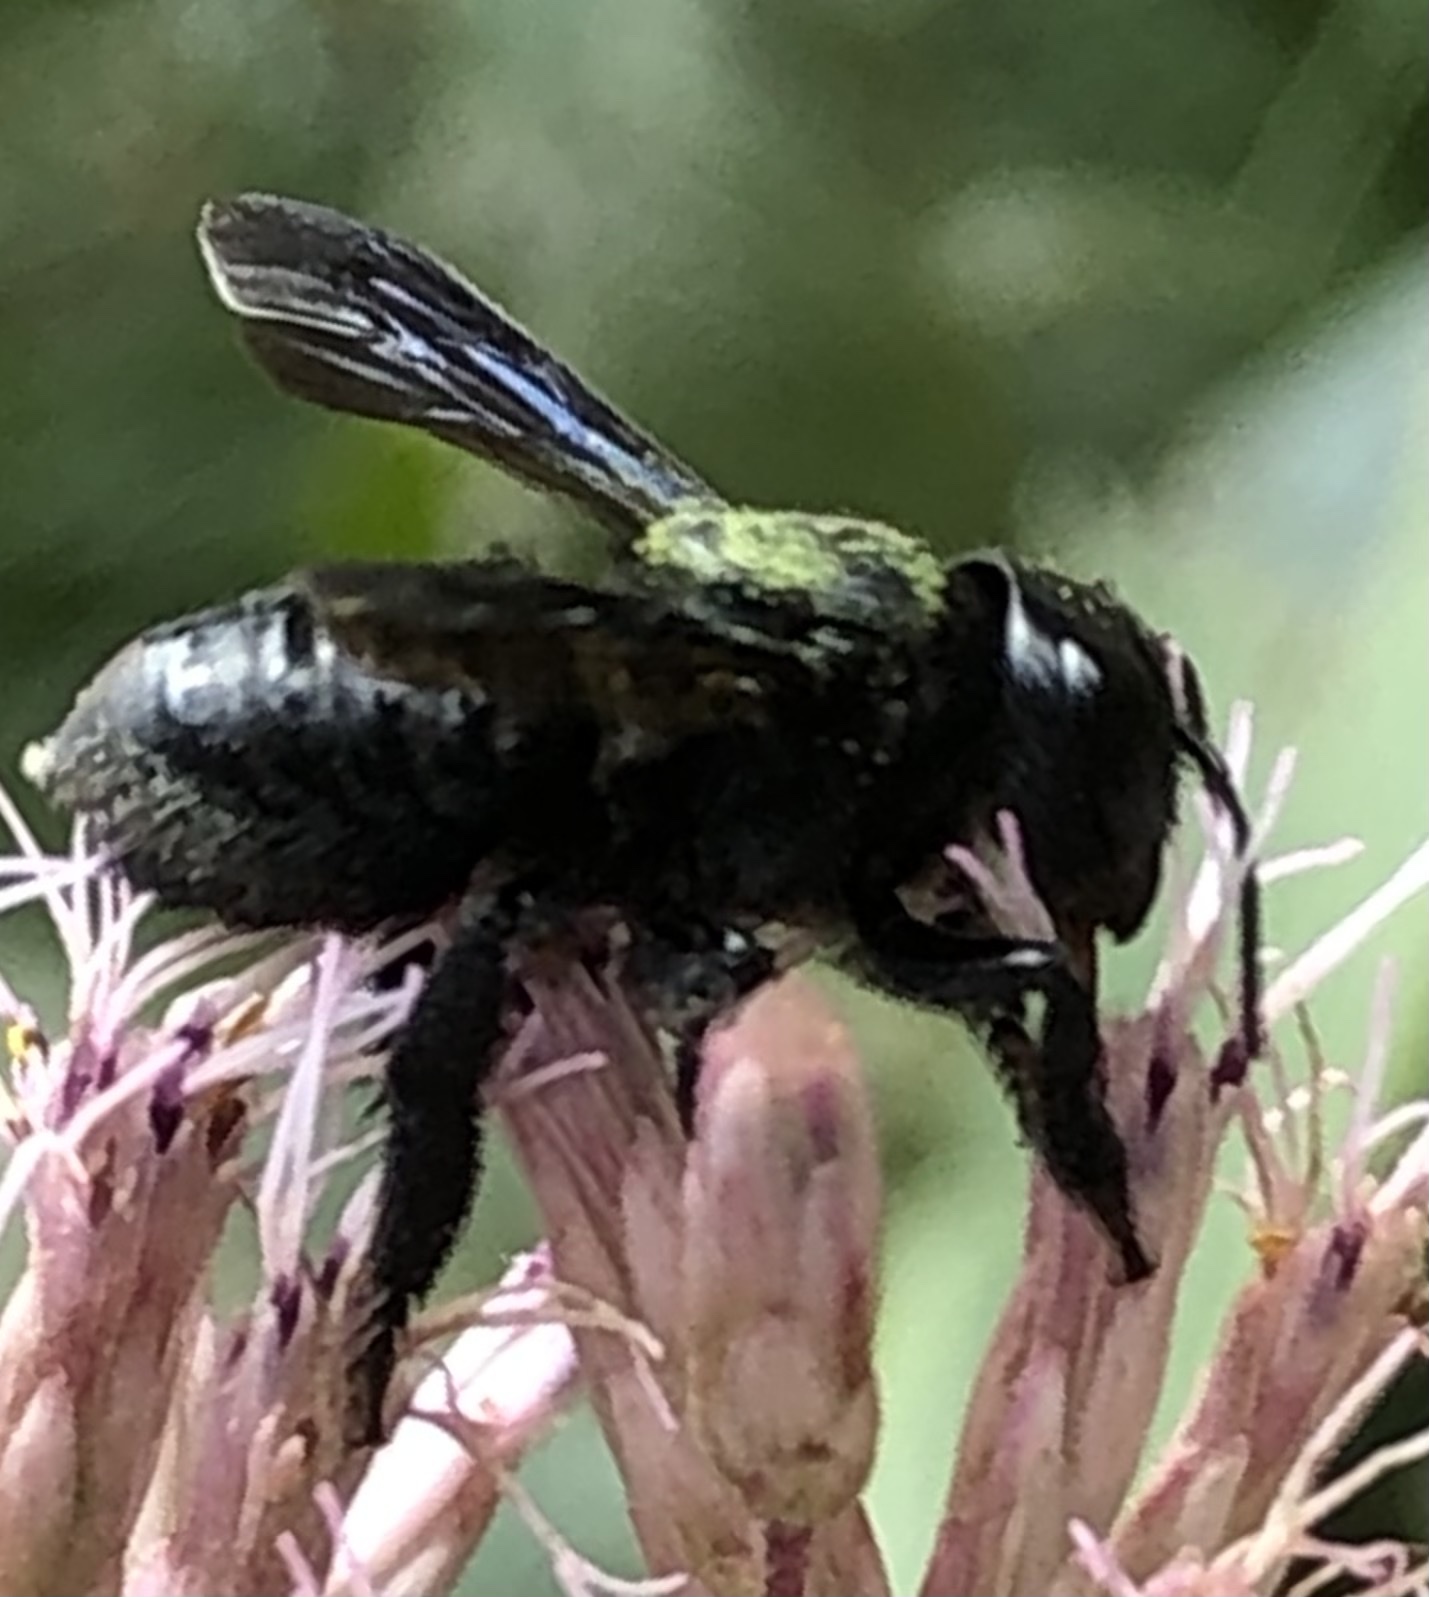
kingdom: Animalia
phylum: Arthropoda
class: Insecta
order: Hymenoptera
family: Megachilidae
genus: Megachile
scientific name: Megachile xylocopoides
